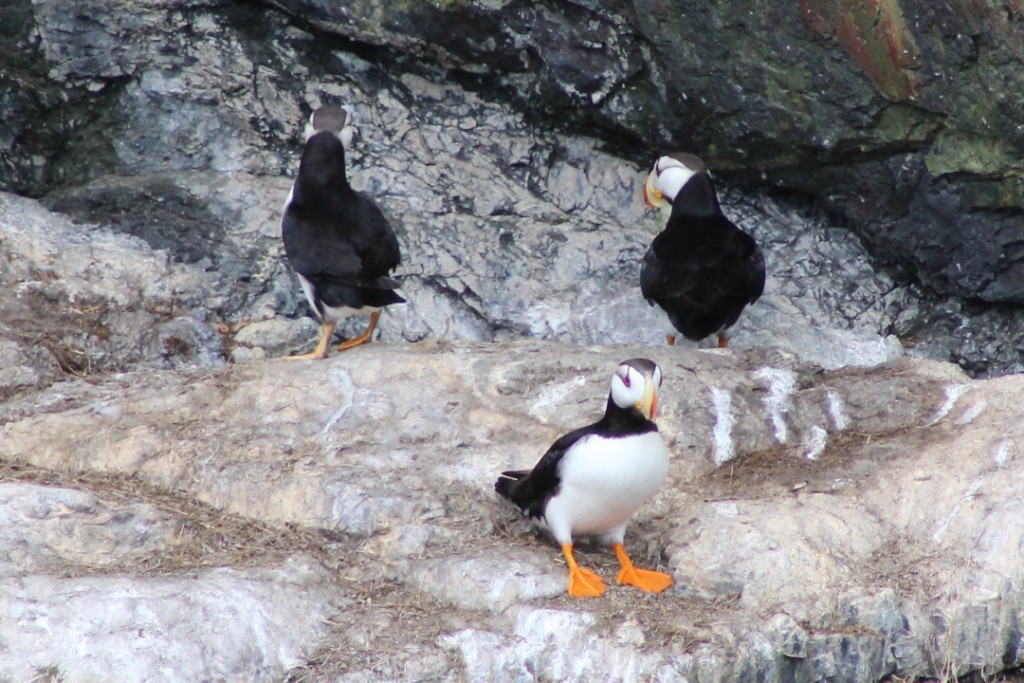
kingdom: Animalia
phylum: Chordata
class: Aves
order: Charadriiformes
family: Alcidae
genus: Fratercula
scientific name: Fratercula corniculata
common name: Horned puffin
